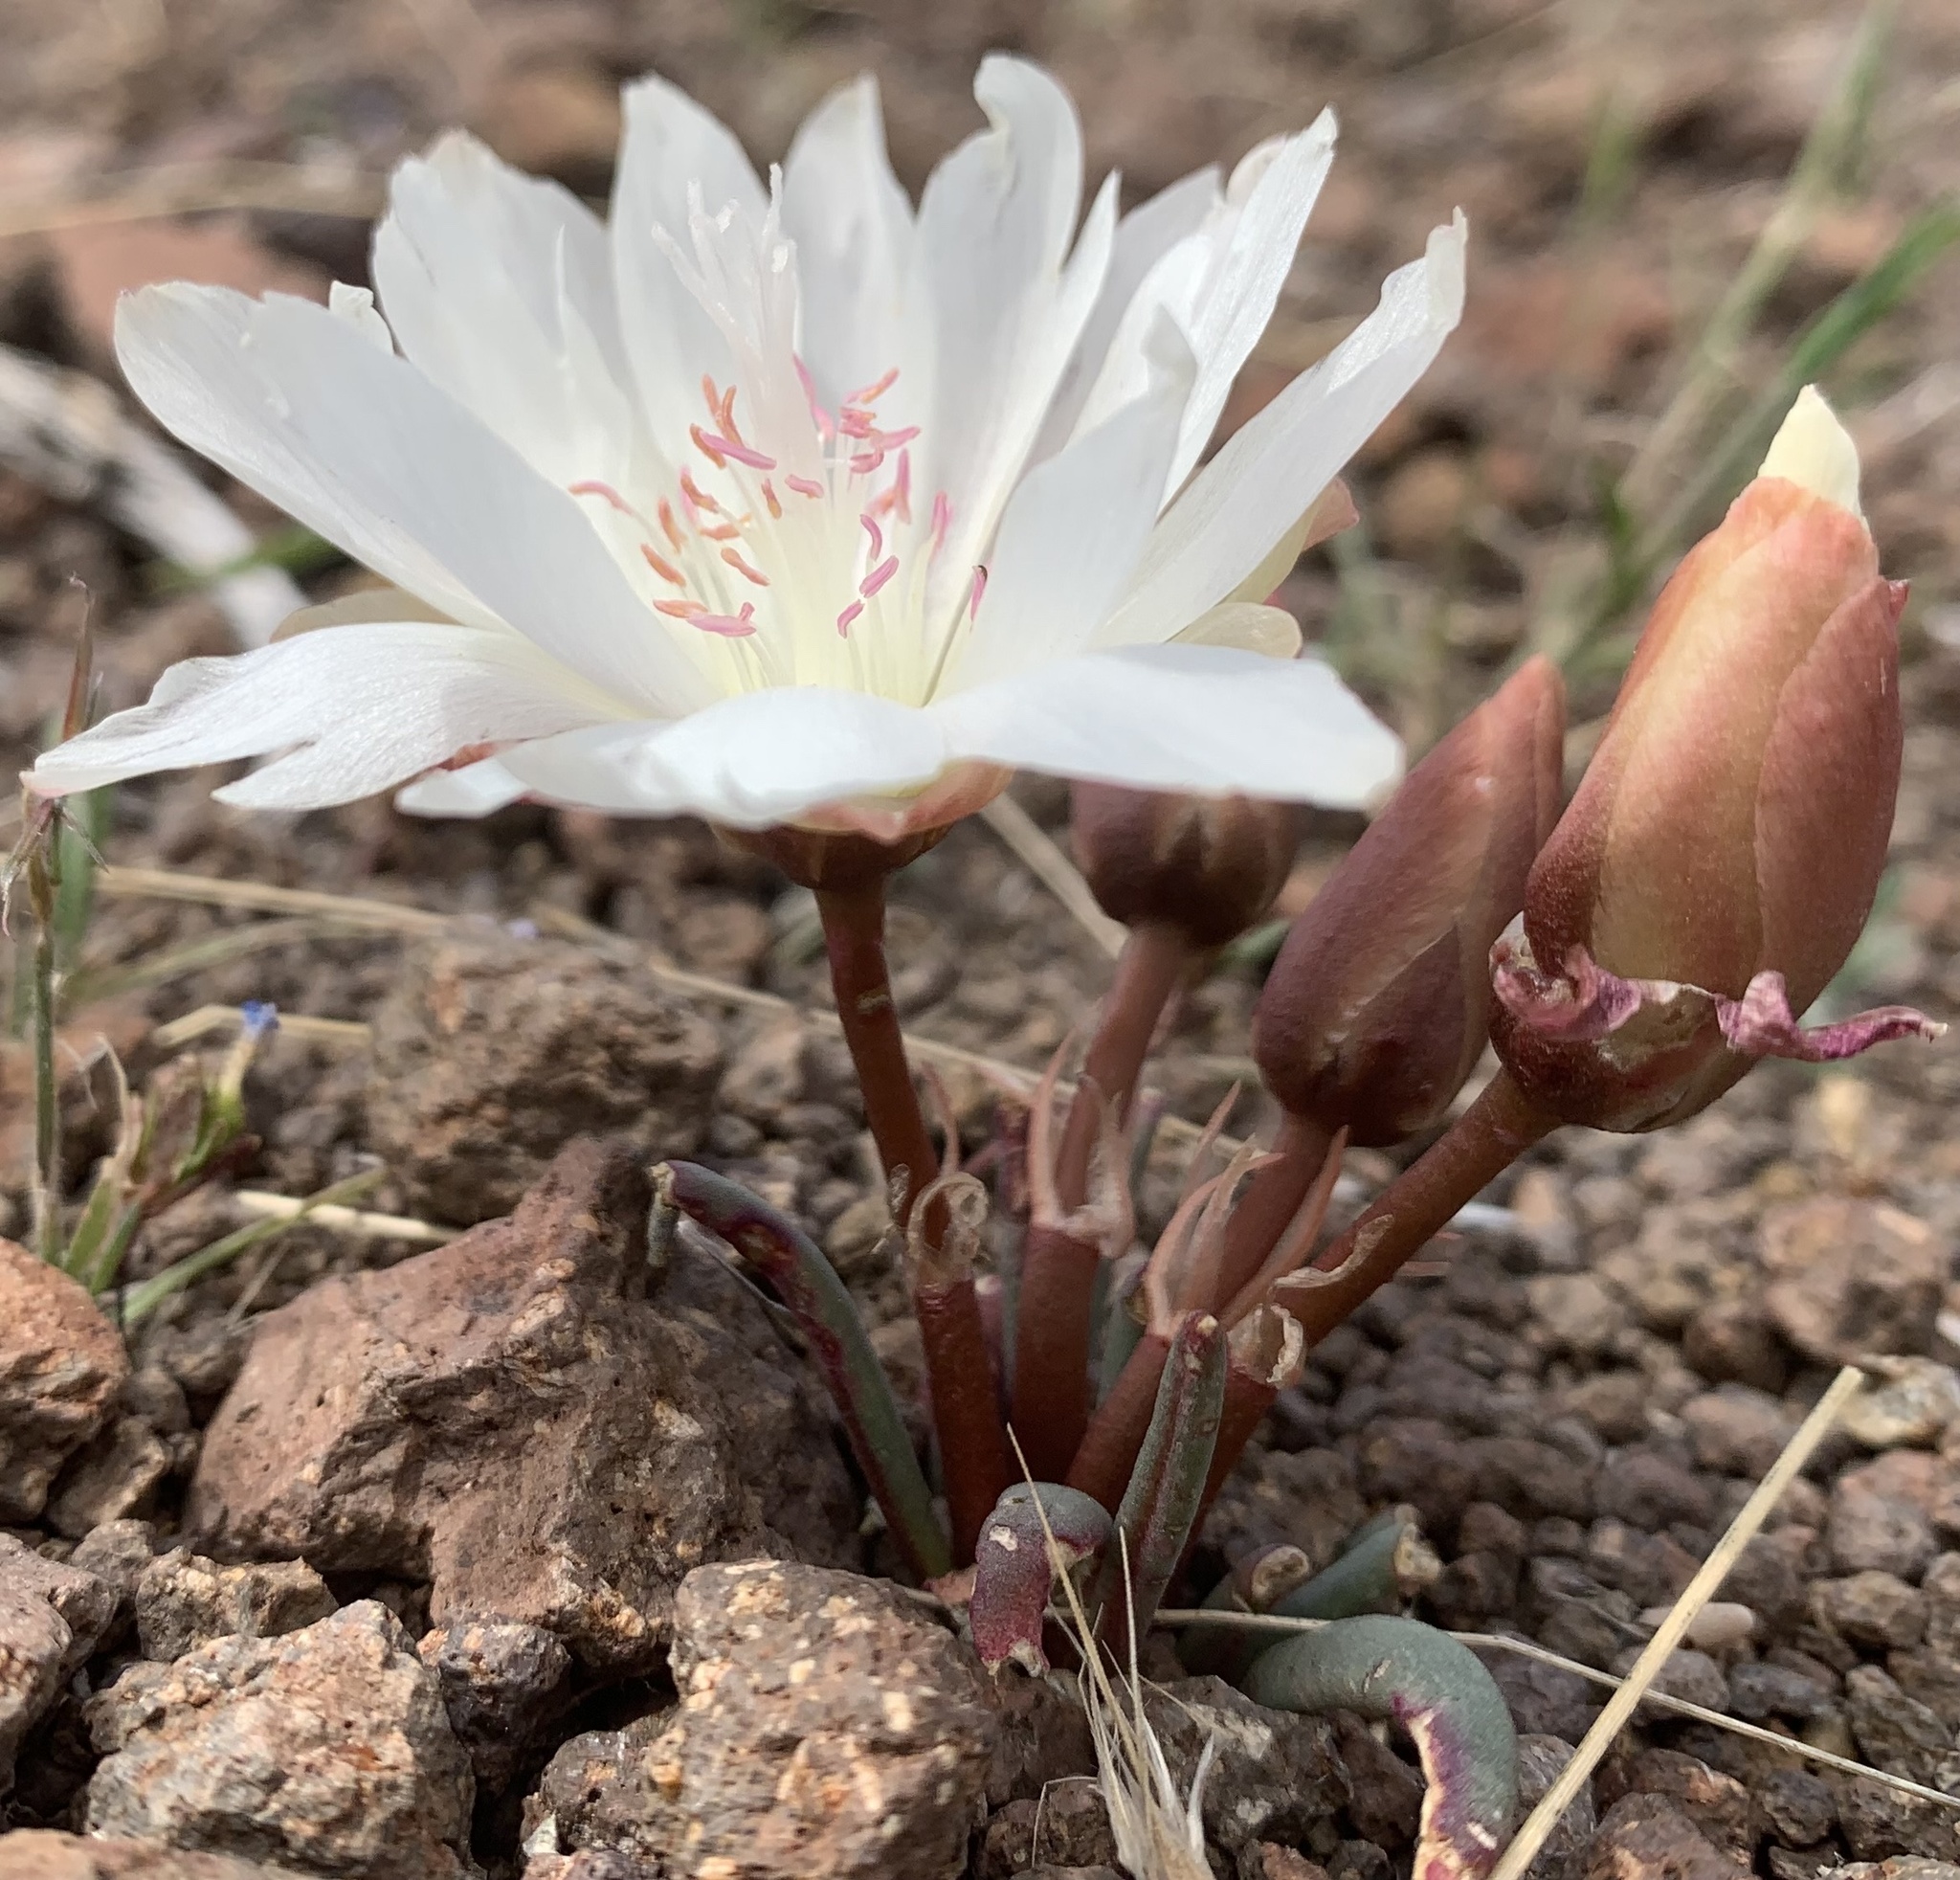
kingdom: Plantae
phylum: Tracheophyta
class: Magnoliopsida
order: Caryophyllales
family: Montiaceae
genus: Lewisia
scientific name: Lewisia rediviva
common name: Bitter-root
